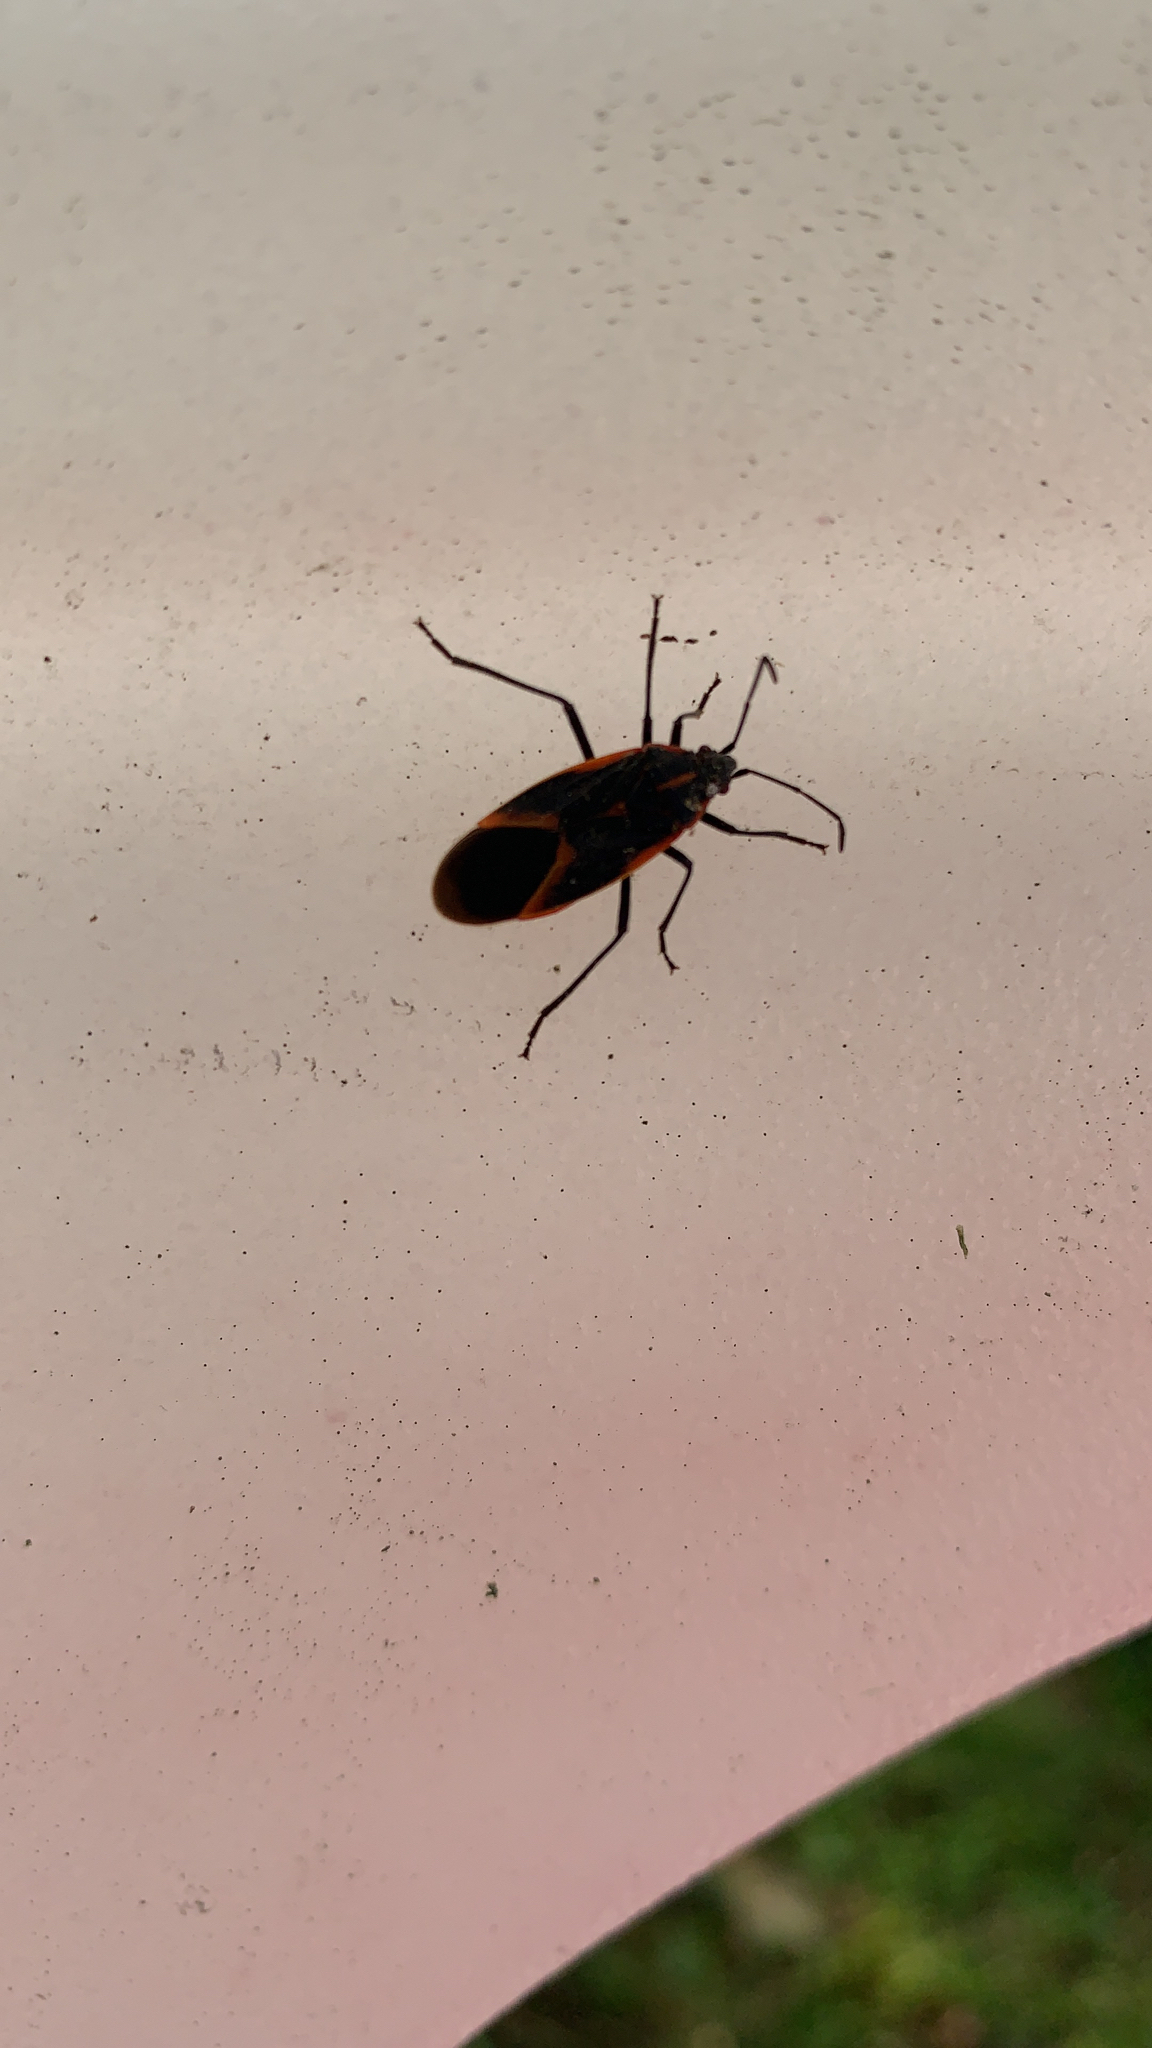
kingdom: Animalia
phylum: Arthropoda
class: Insecta
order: Hemiptera
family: Rhopalidae
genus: Boisea
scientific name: Boisea trivittata
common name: Boxelder bug
